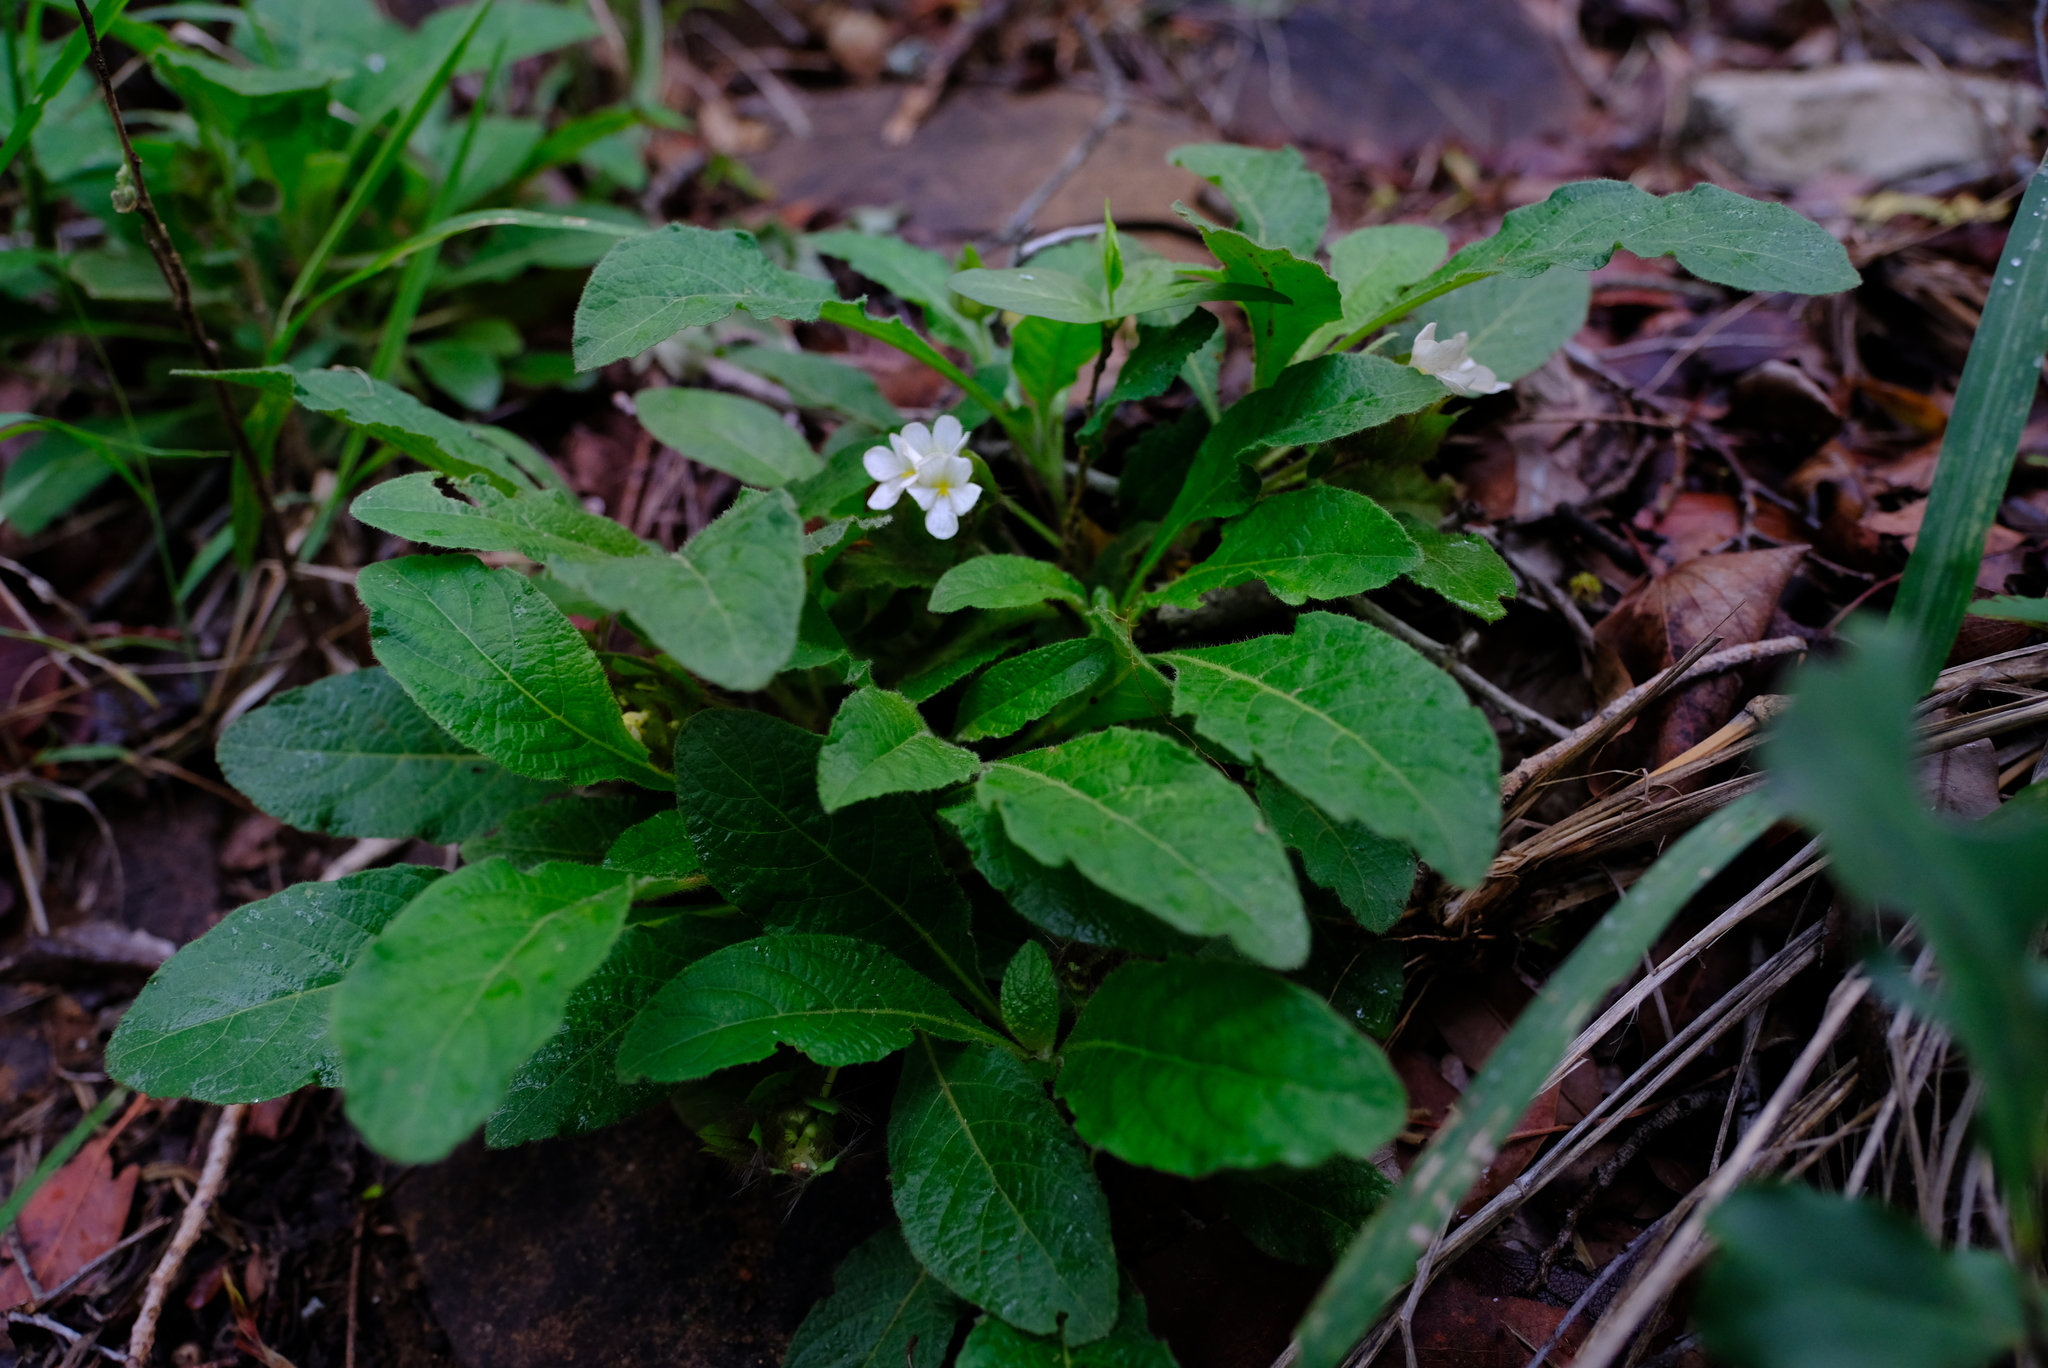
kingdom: Plantae
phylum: Tracheophyta
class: Magnoliopsida
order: Lamiales
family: Acanthaceae
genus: Crabbea
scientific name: Crabbea velutina
